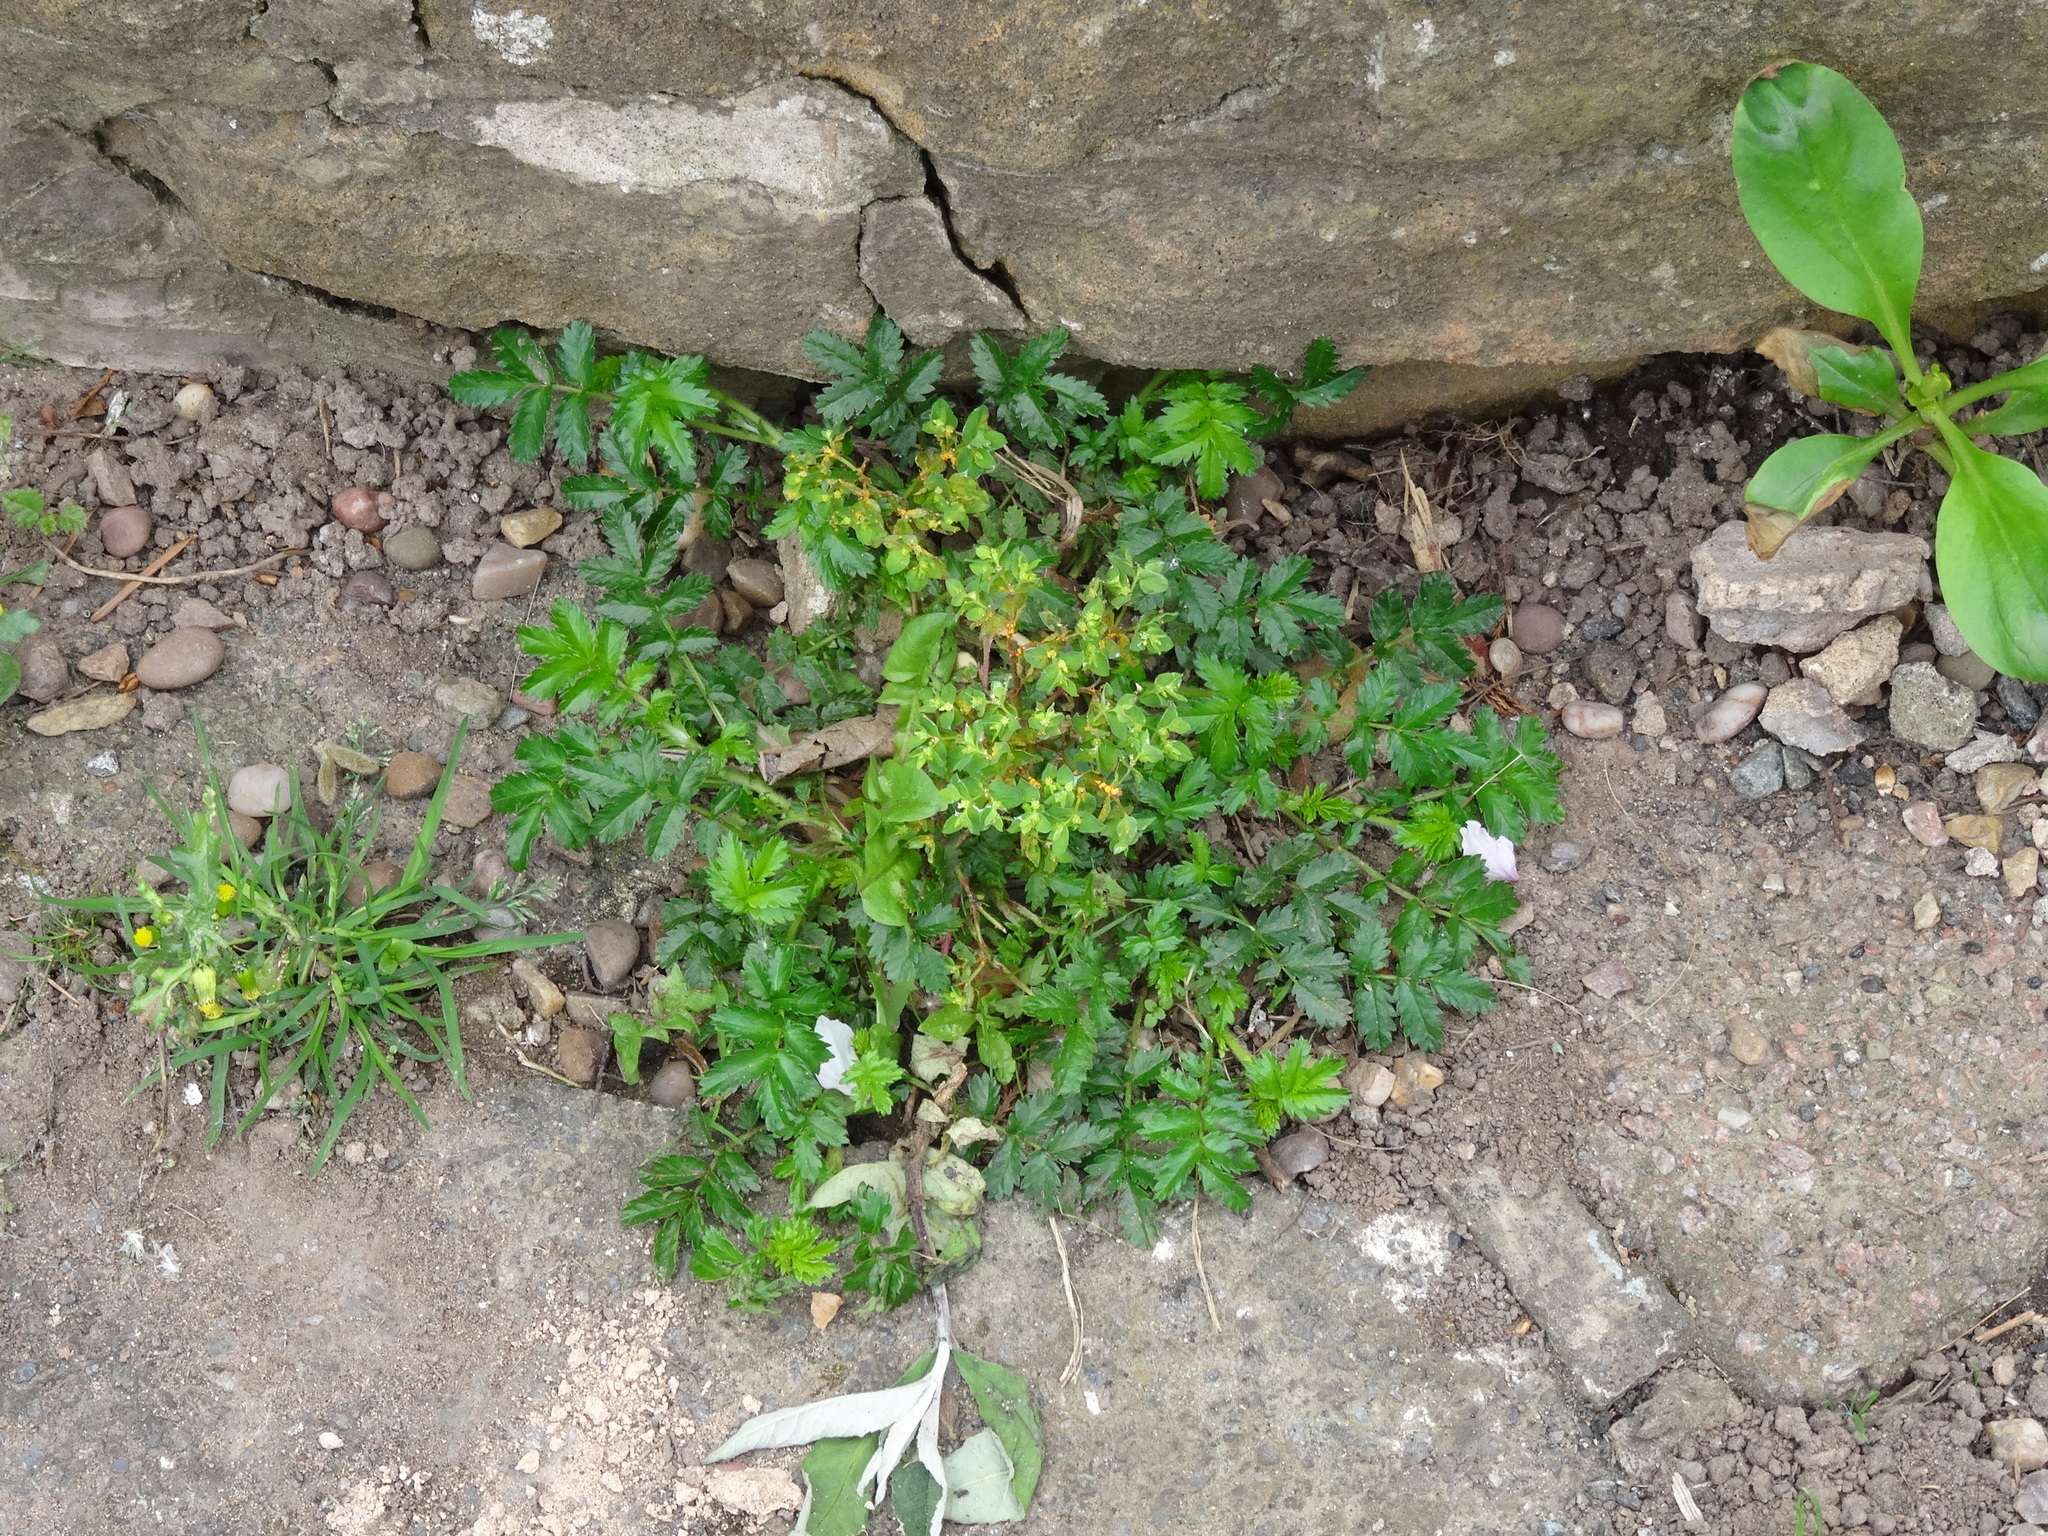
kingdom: Plantae
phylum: Tracheophyta
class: Magnoliopsida
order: Rosales
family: Rosaceae
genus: Acaena
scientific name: Acaena novae-zelandiae
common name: Pirri-pirri-bur
